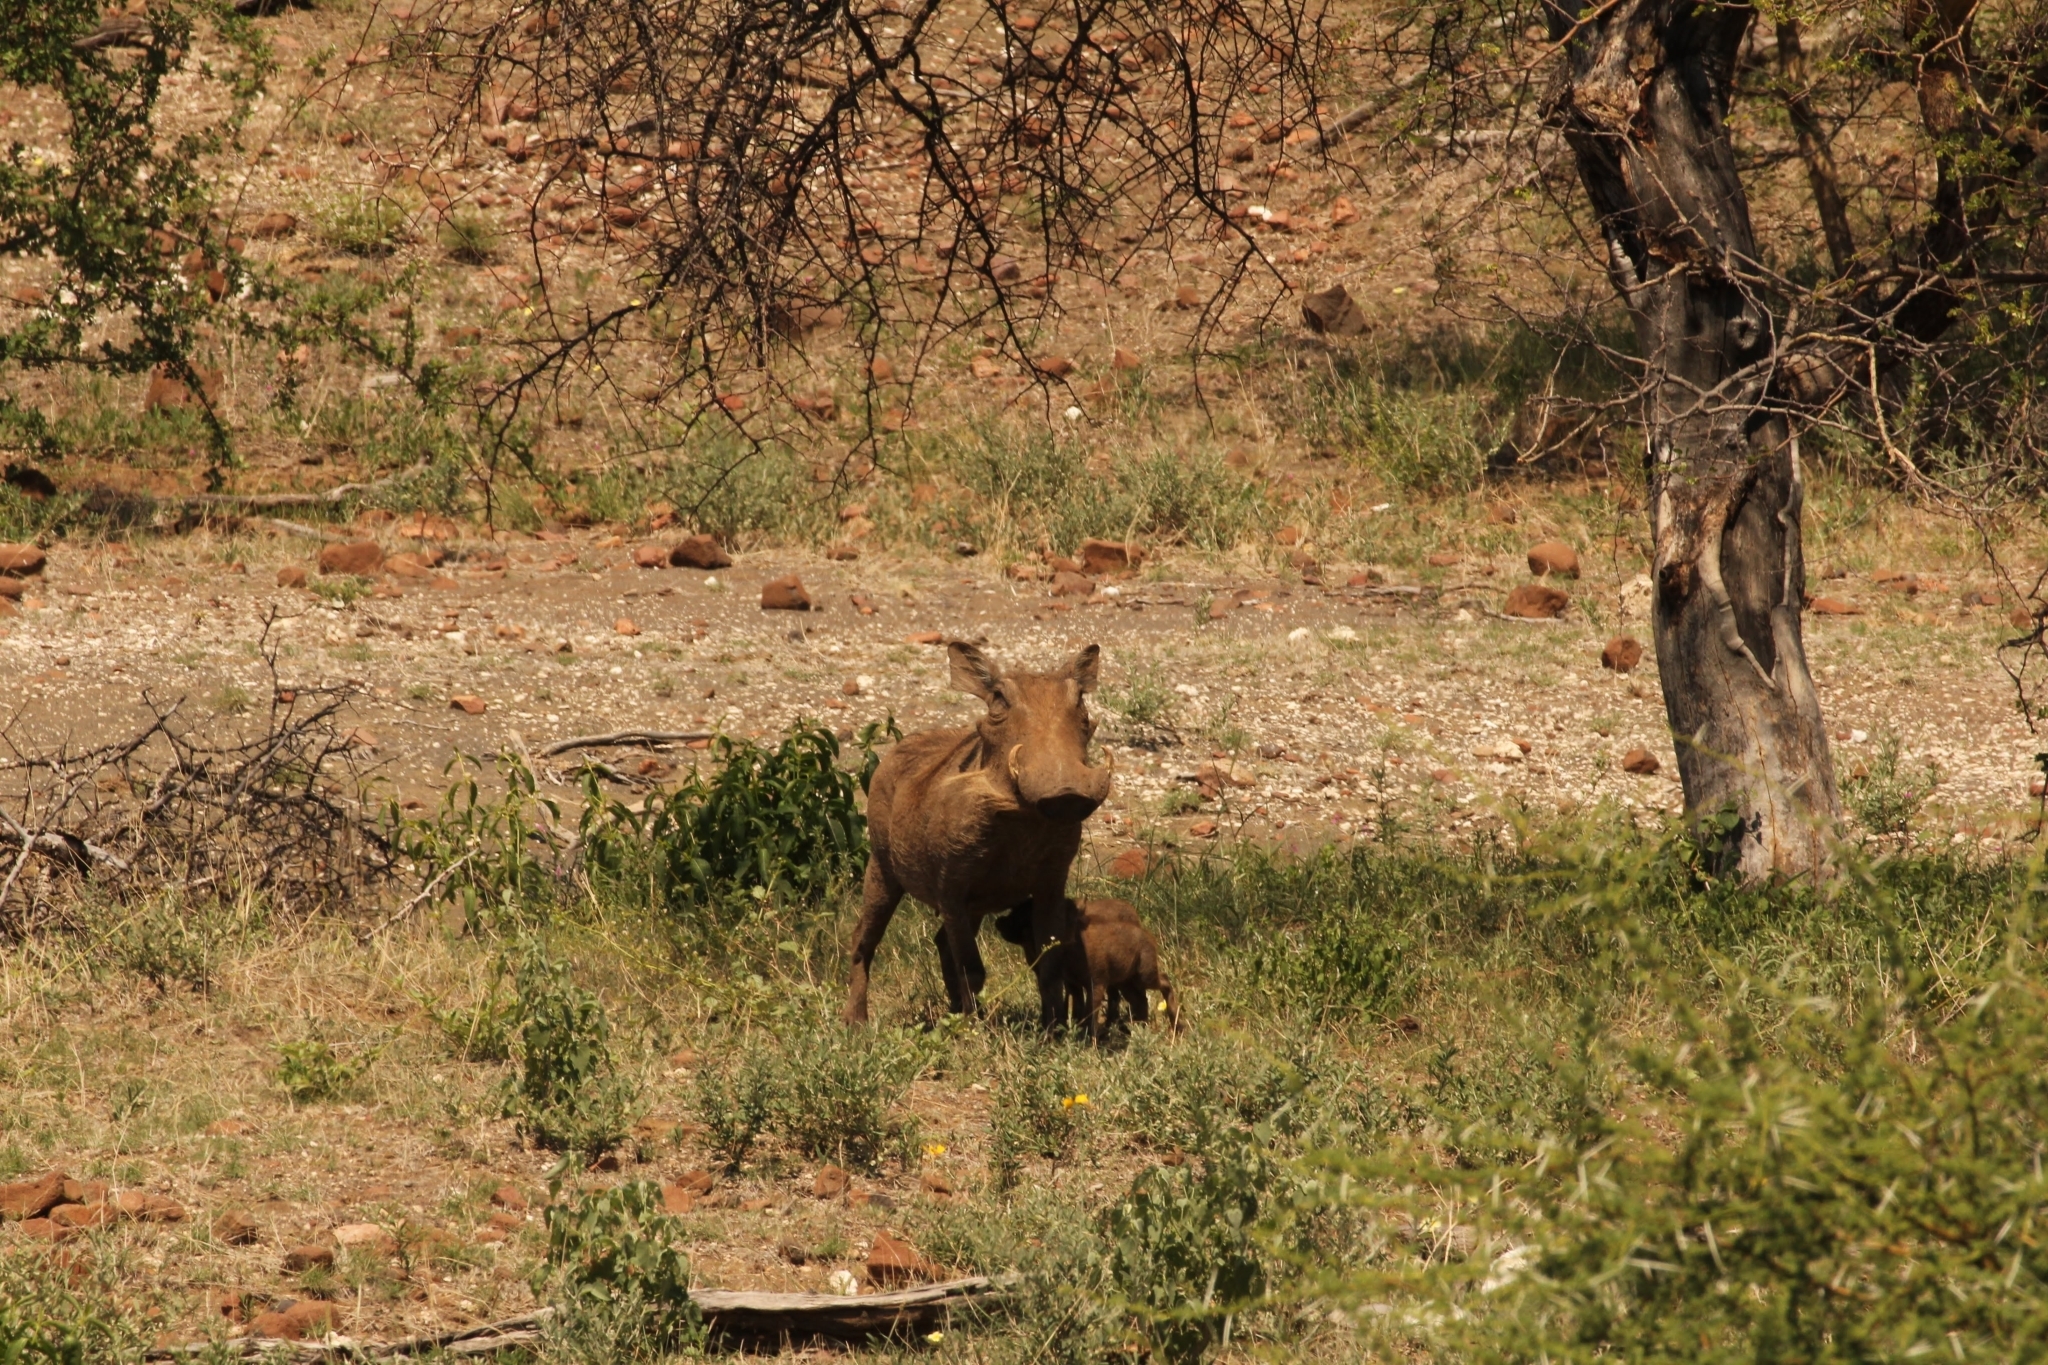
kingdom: Animalia
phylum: Chordata
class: Mammalia
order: Artiodactyla
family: Suidae
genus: Phacochoerus
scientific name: Phacochoerus africanus
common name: Common warthog
